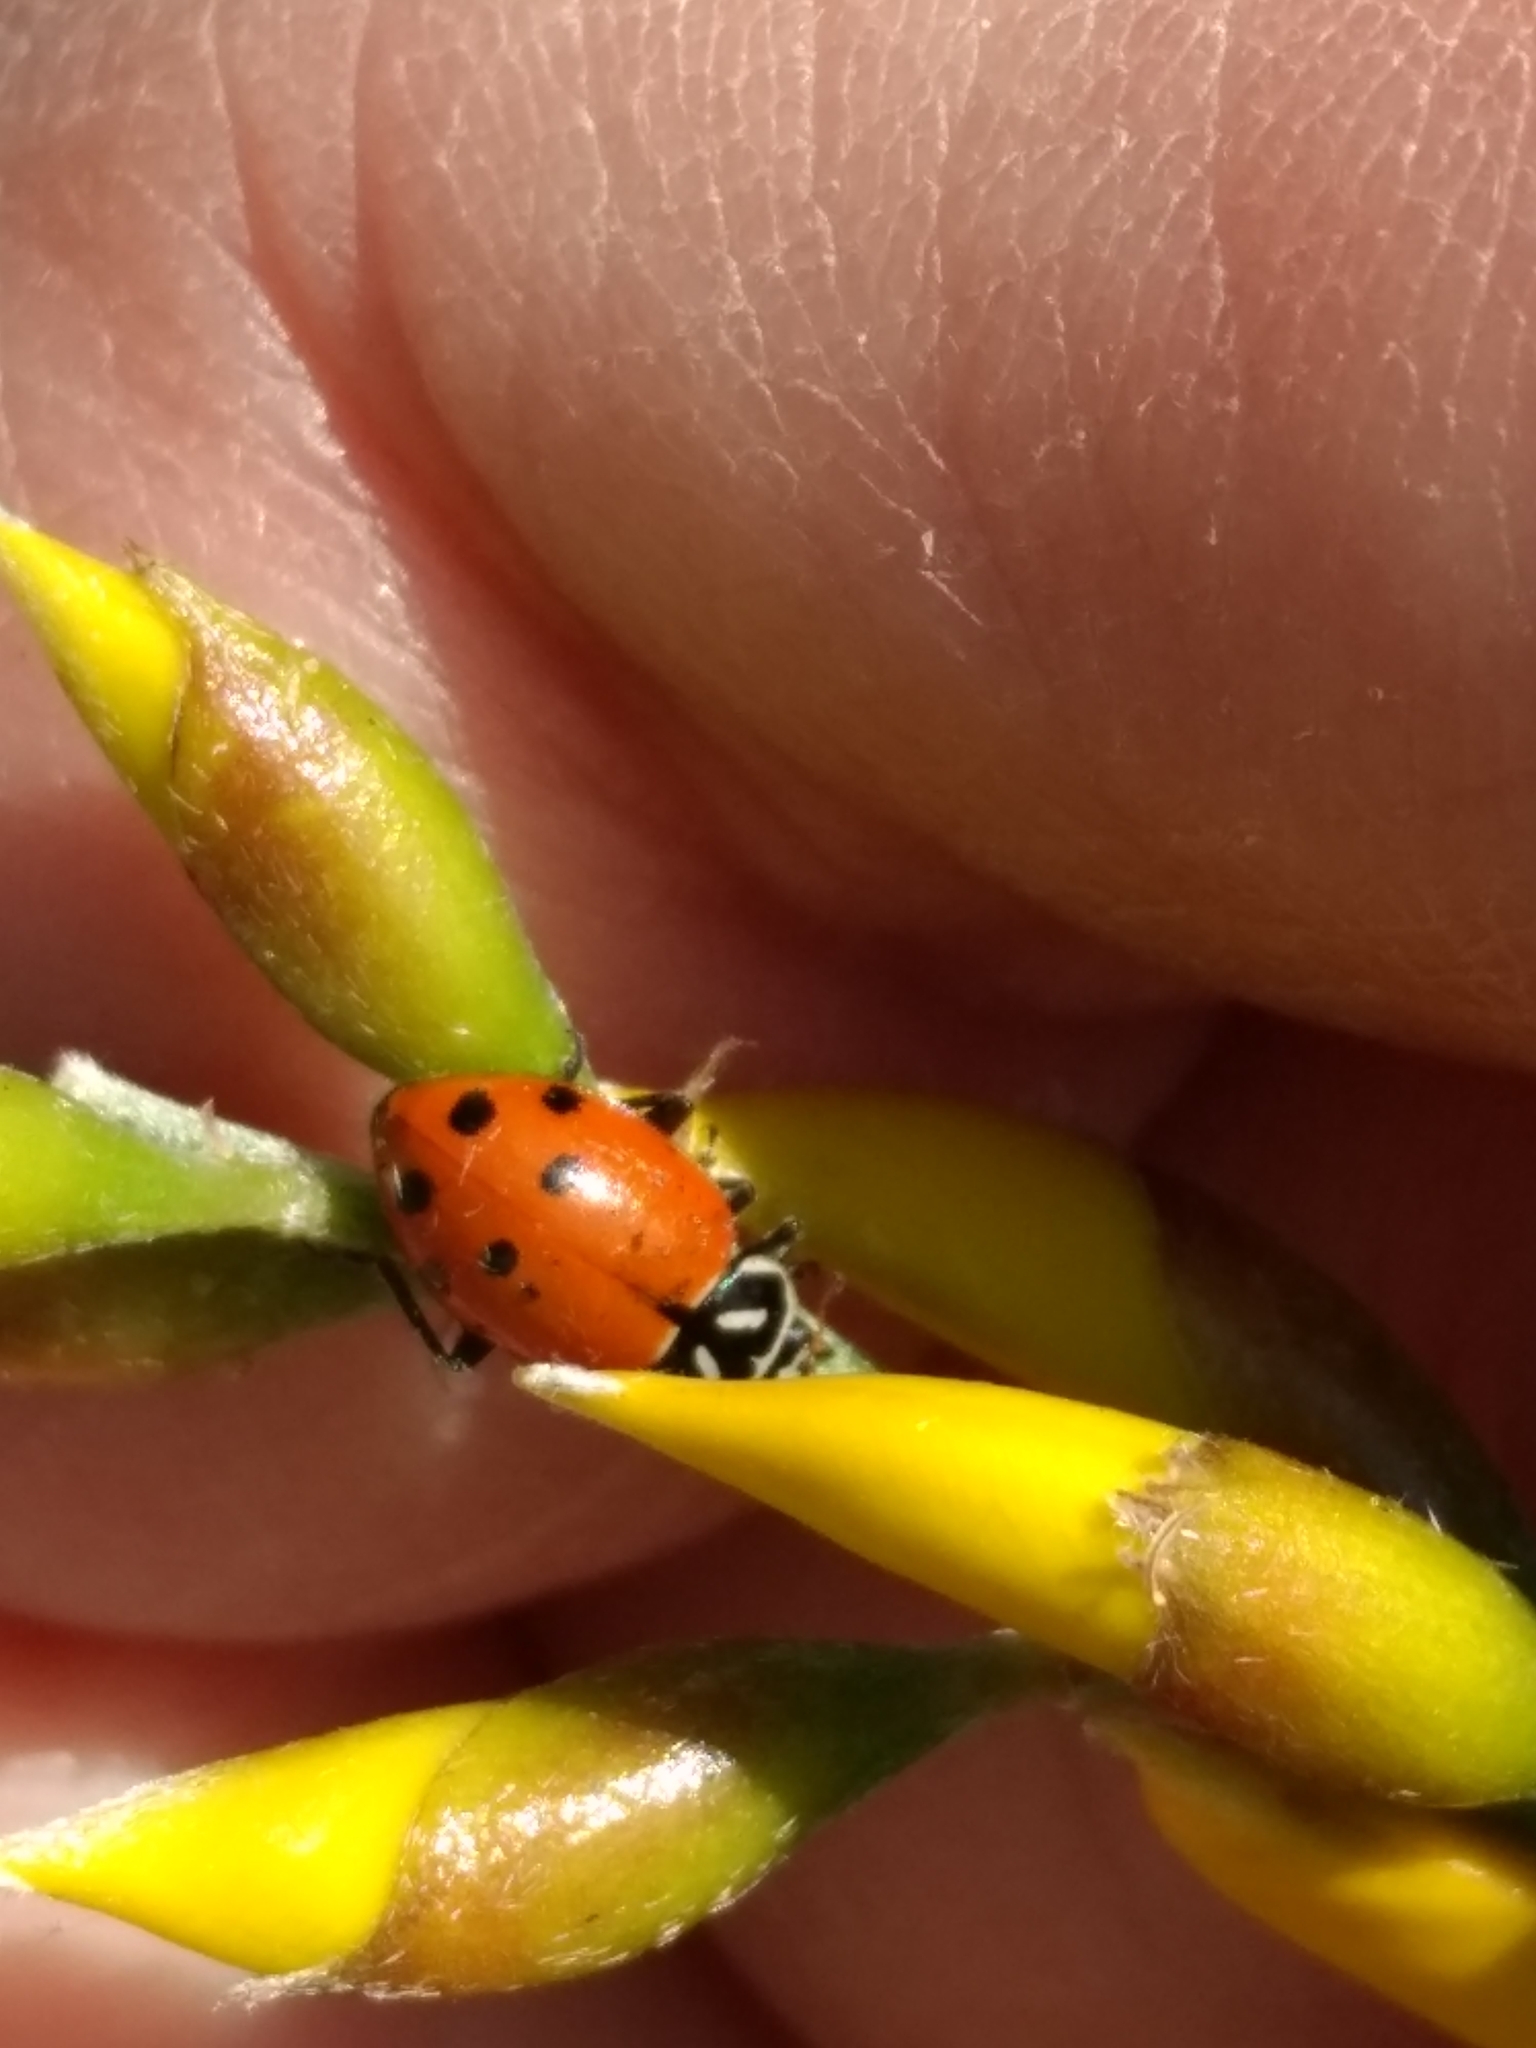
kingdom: Animalia
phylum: Arthropoda
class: Insecta
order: Coleoptera
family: Coccinellidae
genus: Hippodamia
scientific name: Hippodamia convergens
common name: Convergent lady beetle
